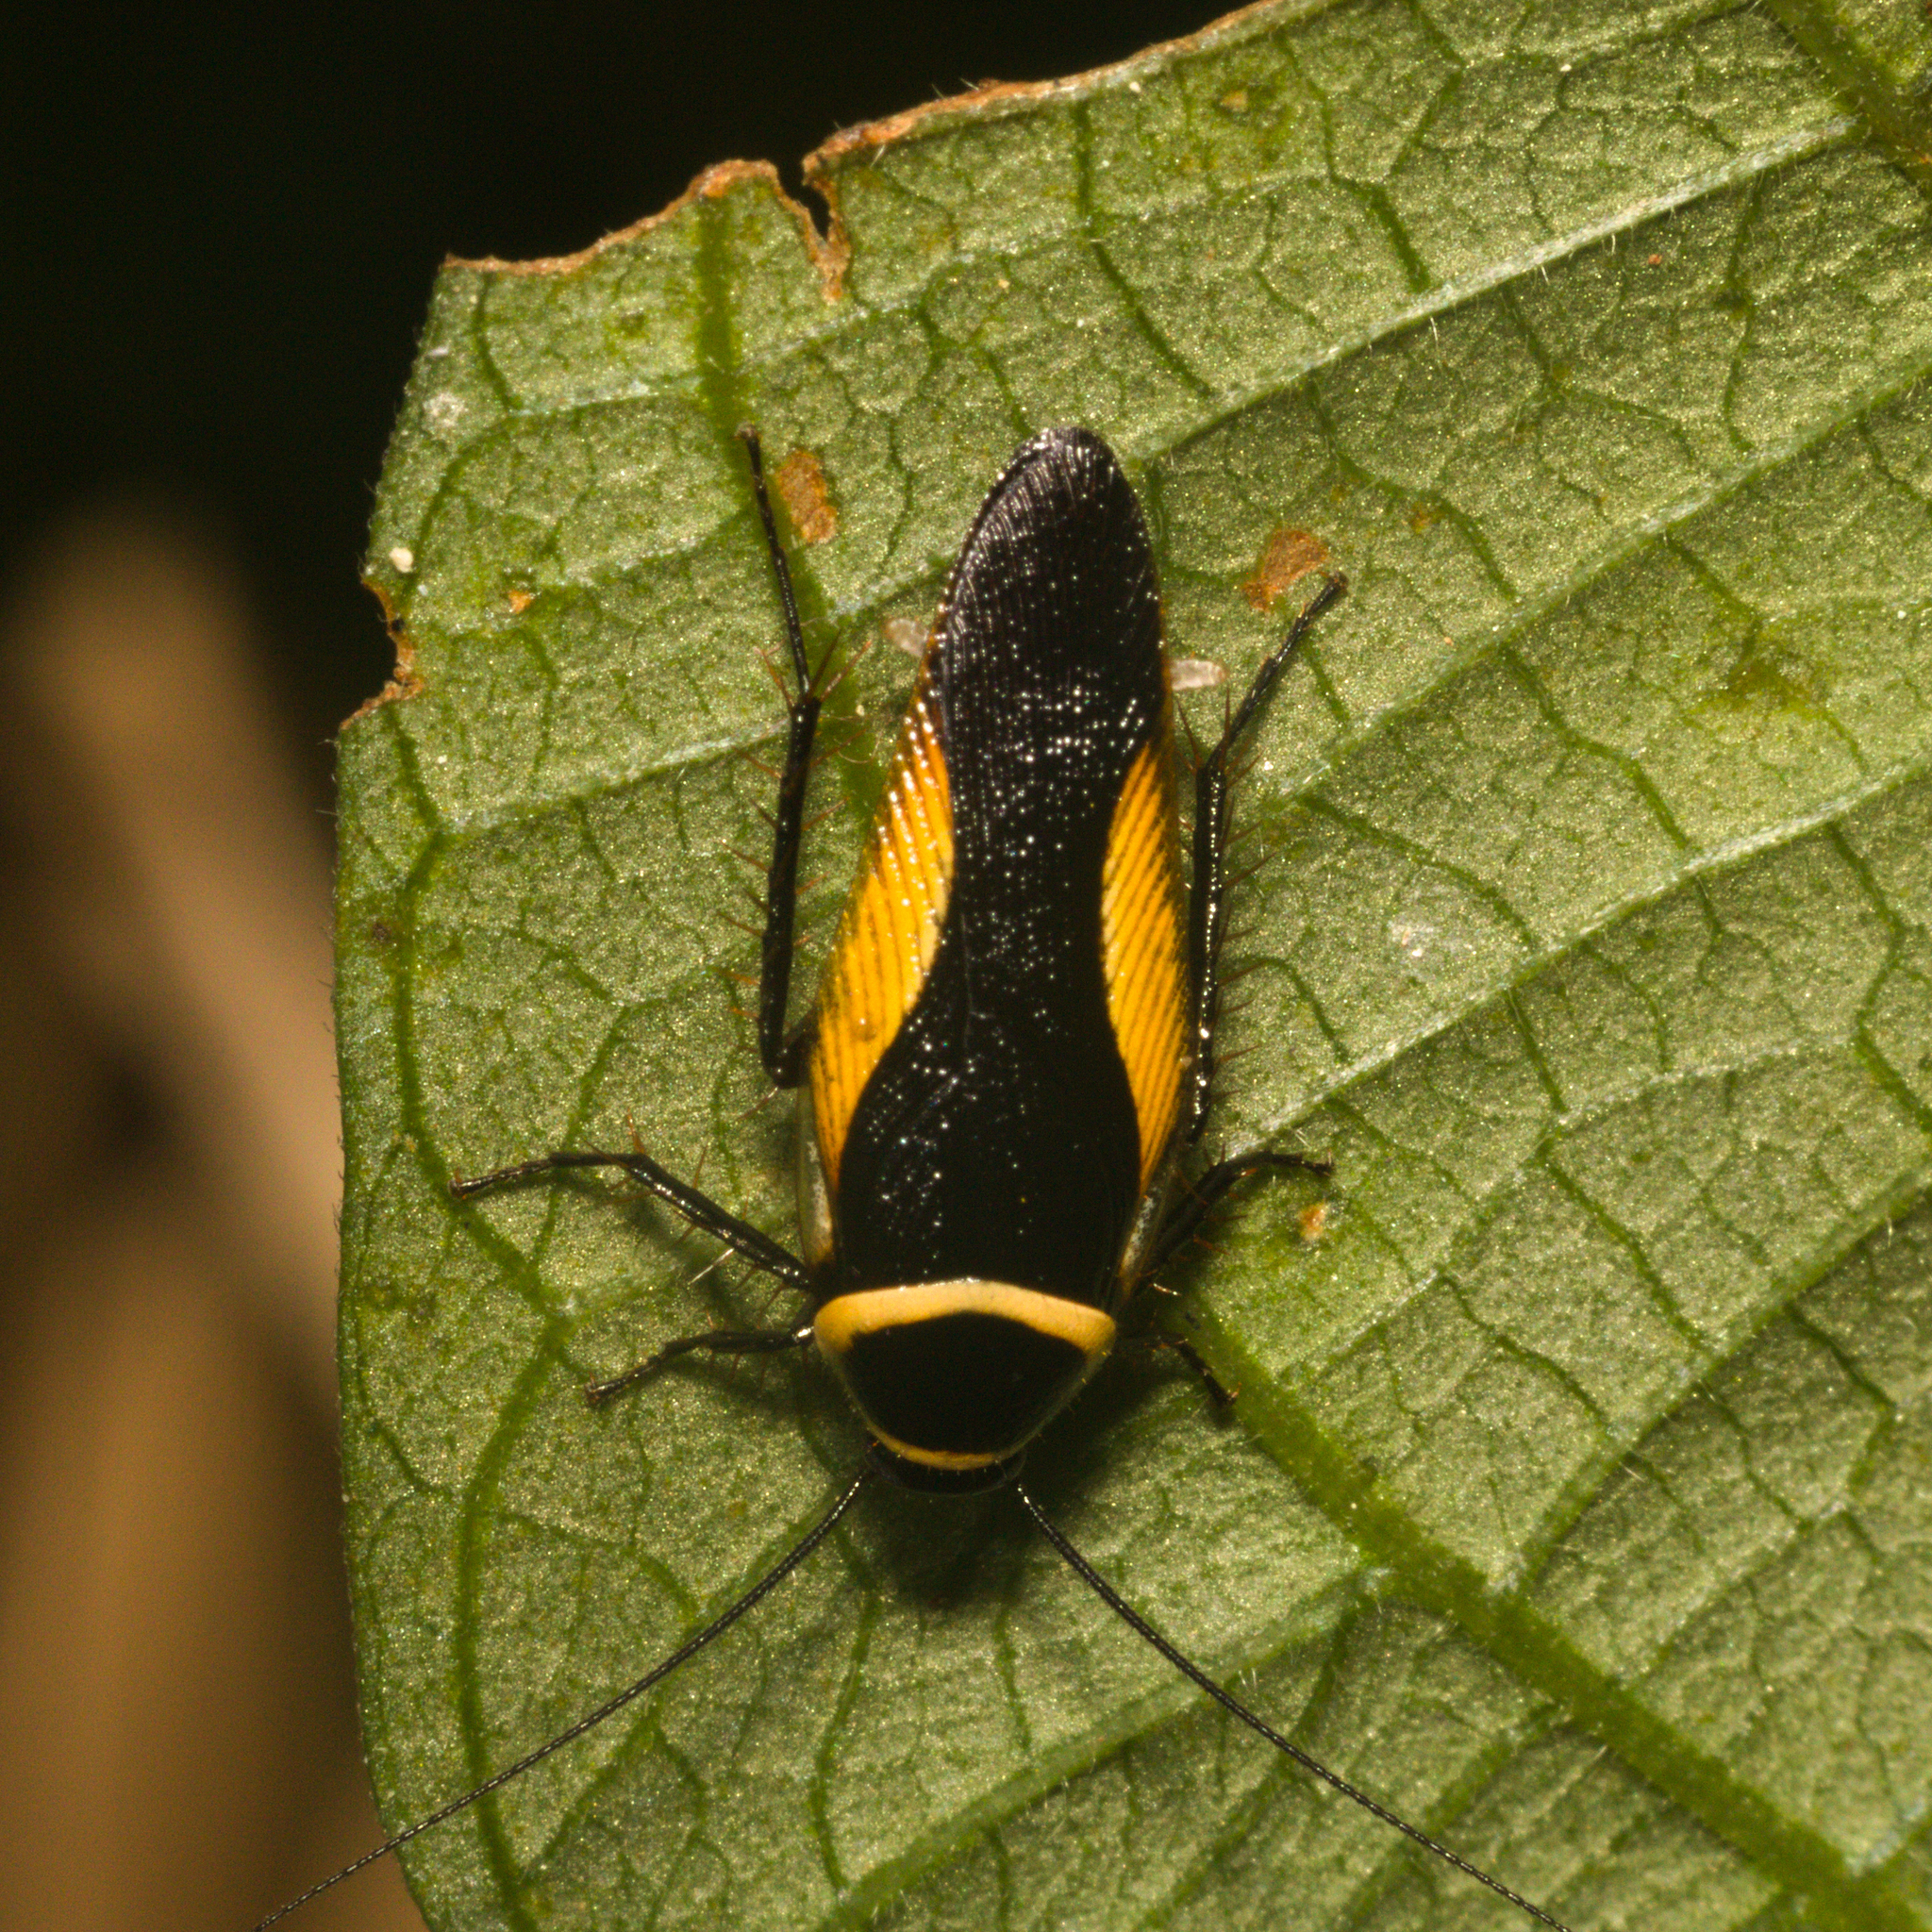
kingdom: Animalia
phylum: Arthropoda
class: Insecta
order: Blattodea
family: Ectobiidae
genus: Hemithyrsocera
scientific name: Hemithyrsocera vittata
